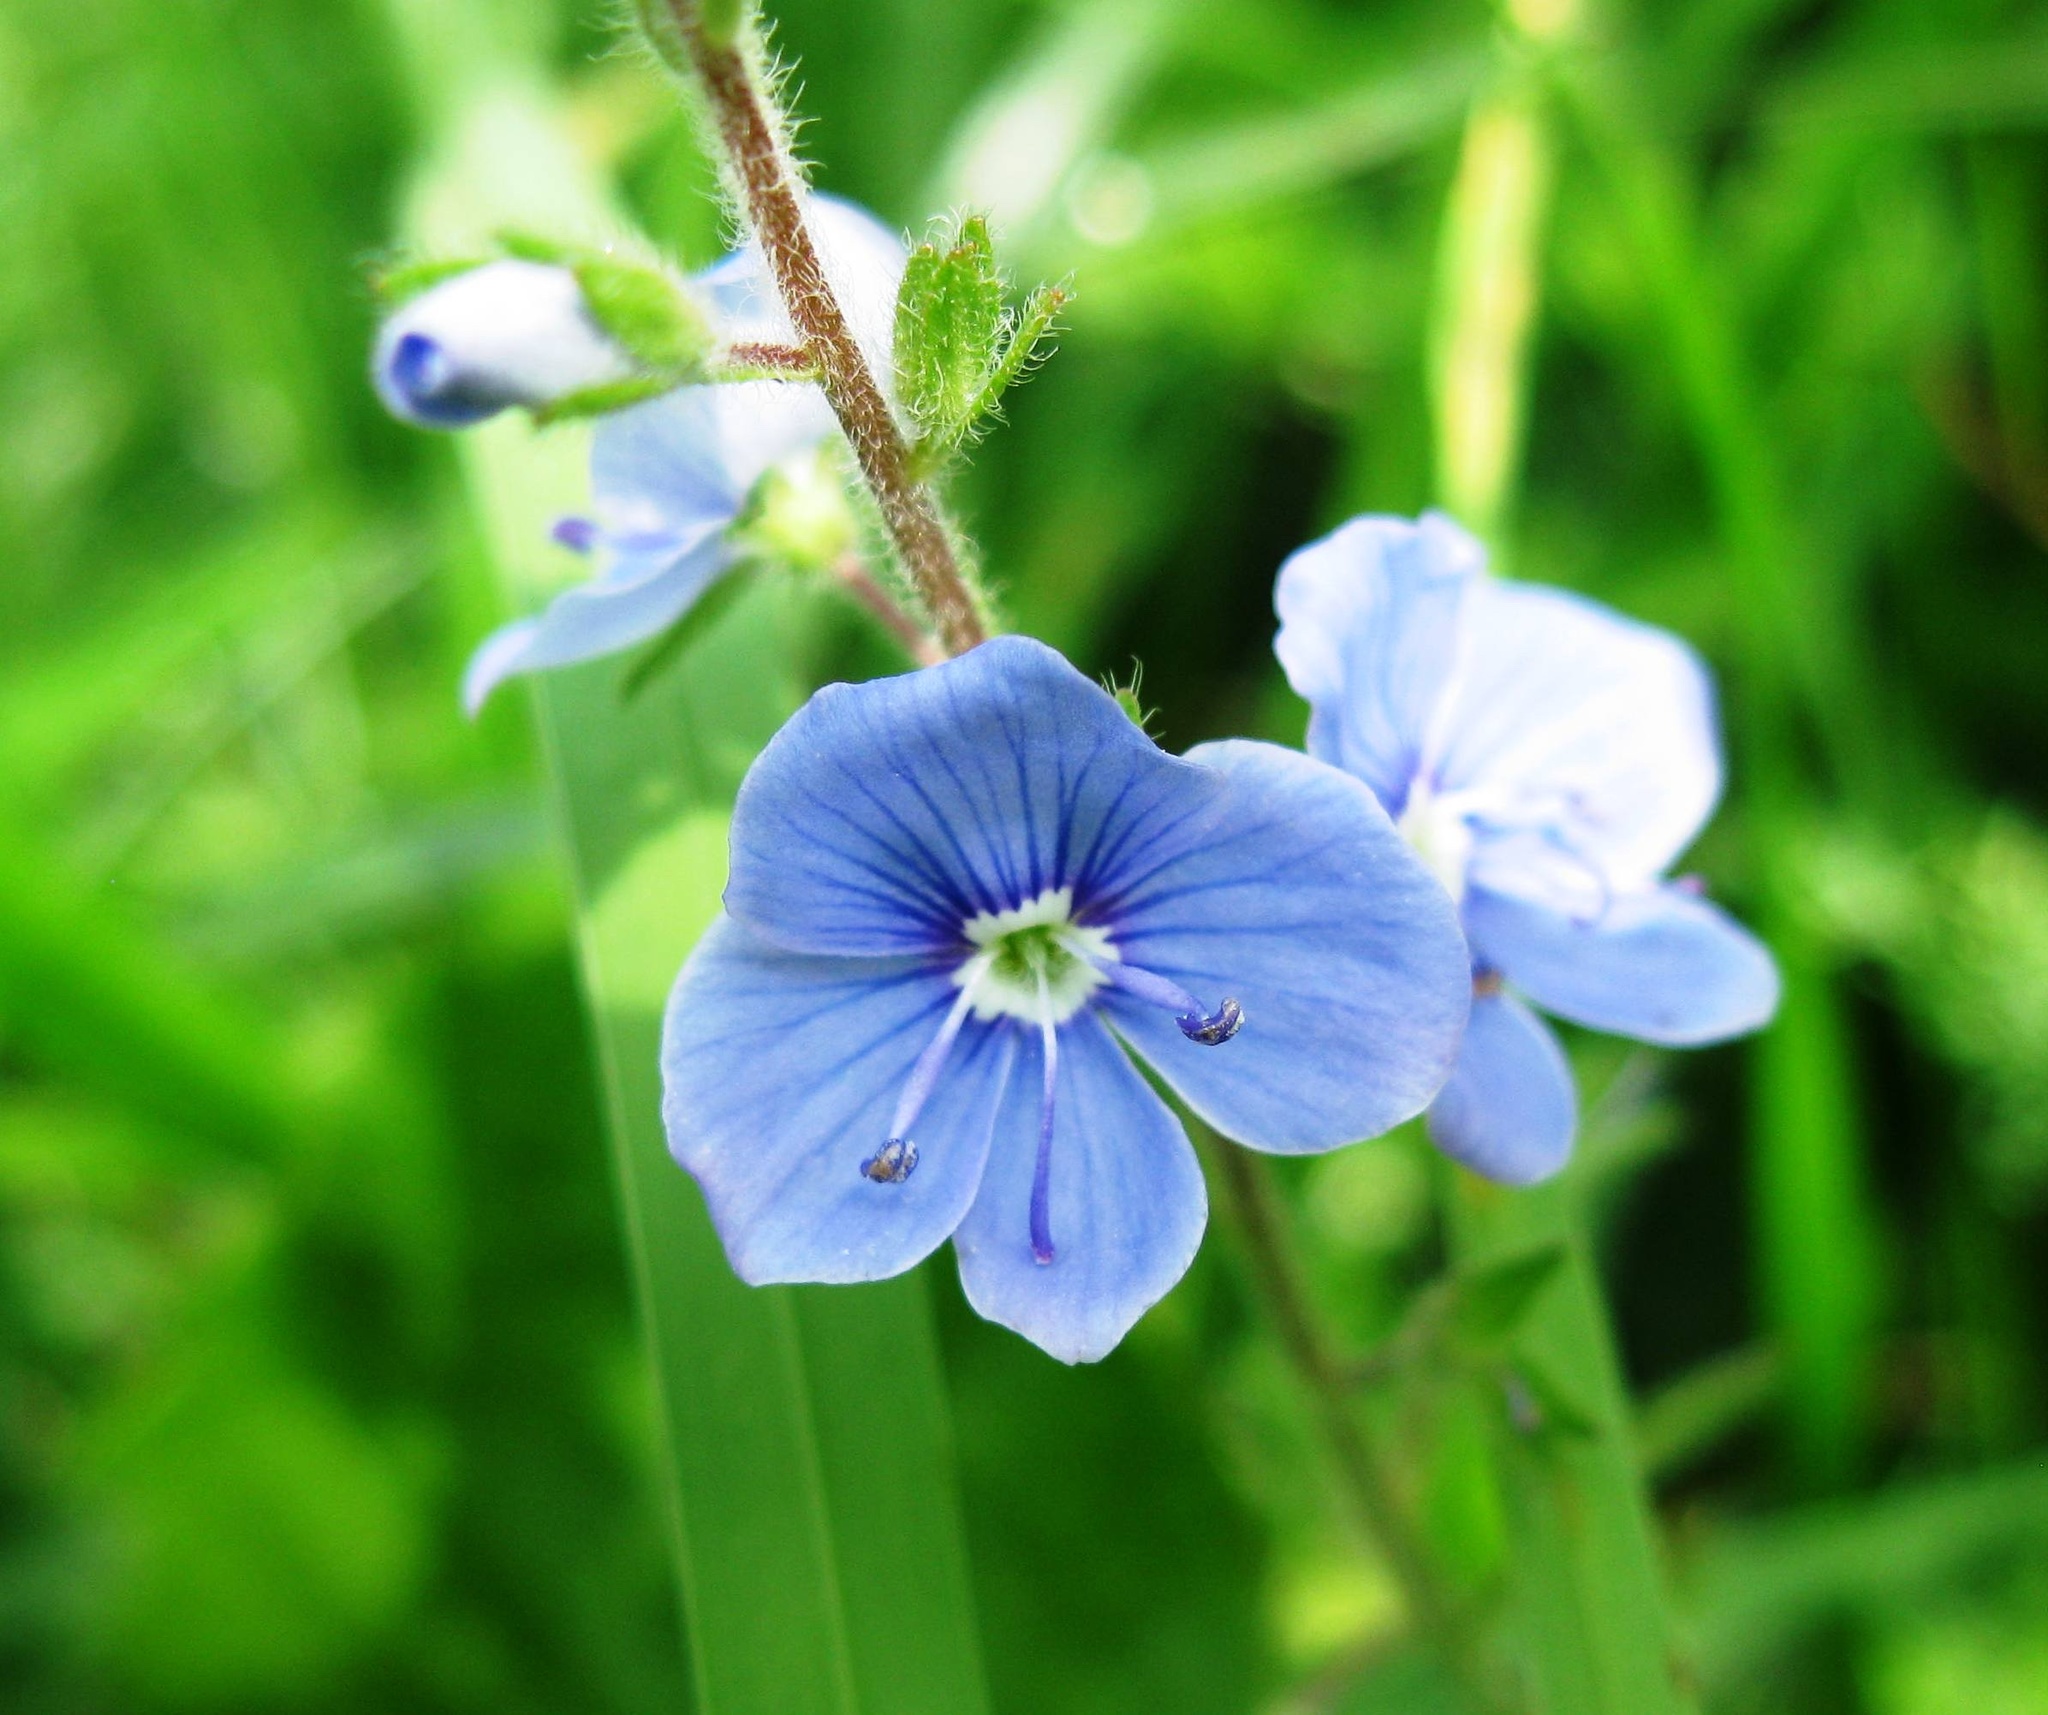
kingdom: Plantae
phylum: Tracheophyta
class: Magnoliopsida
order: Lamiales
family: Plantaginaceae
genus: Veronica
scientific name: Veronica chamaedrys
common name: Germander speedwell
